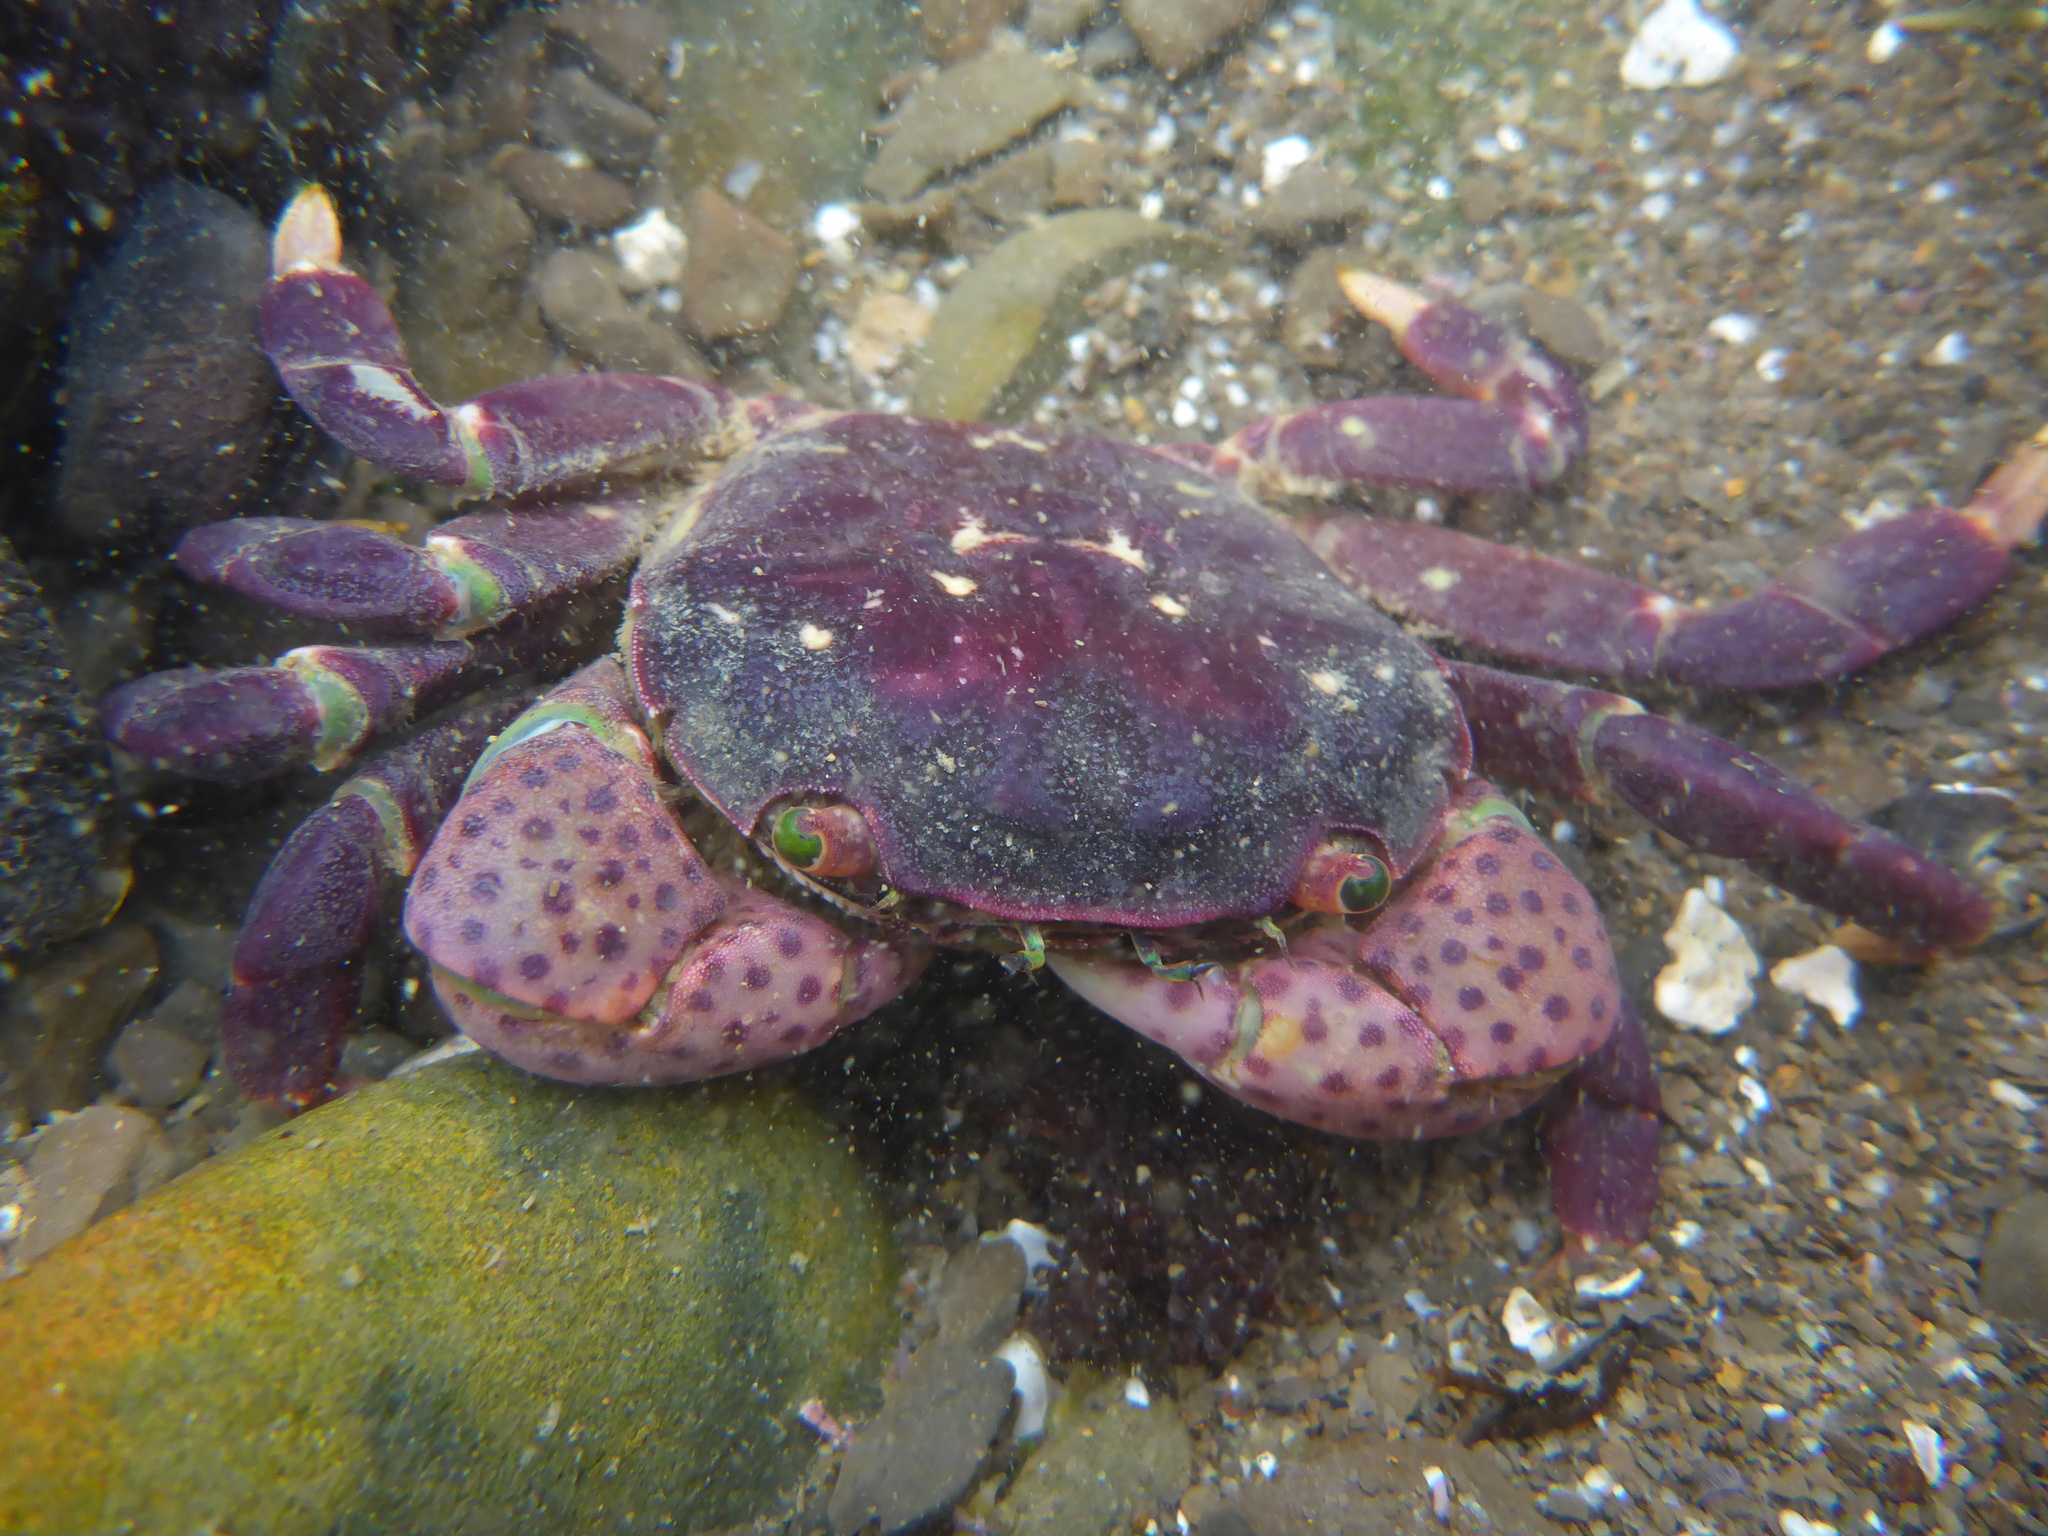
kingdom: Animalia
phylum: Arthropoda
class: Malacostraca
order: Decapoda
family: Varunidae
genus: Hemigrapsus
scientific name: Hemigrapsus nudus
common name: Purple shore crab
